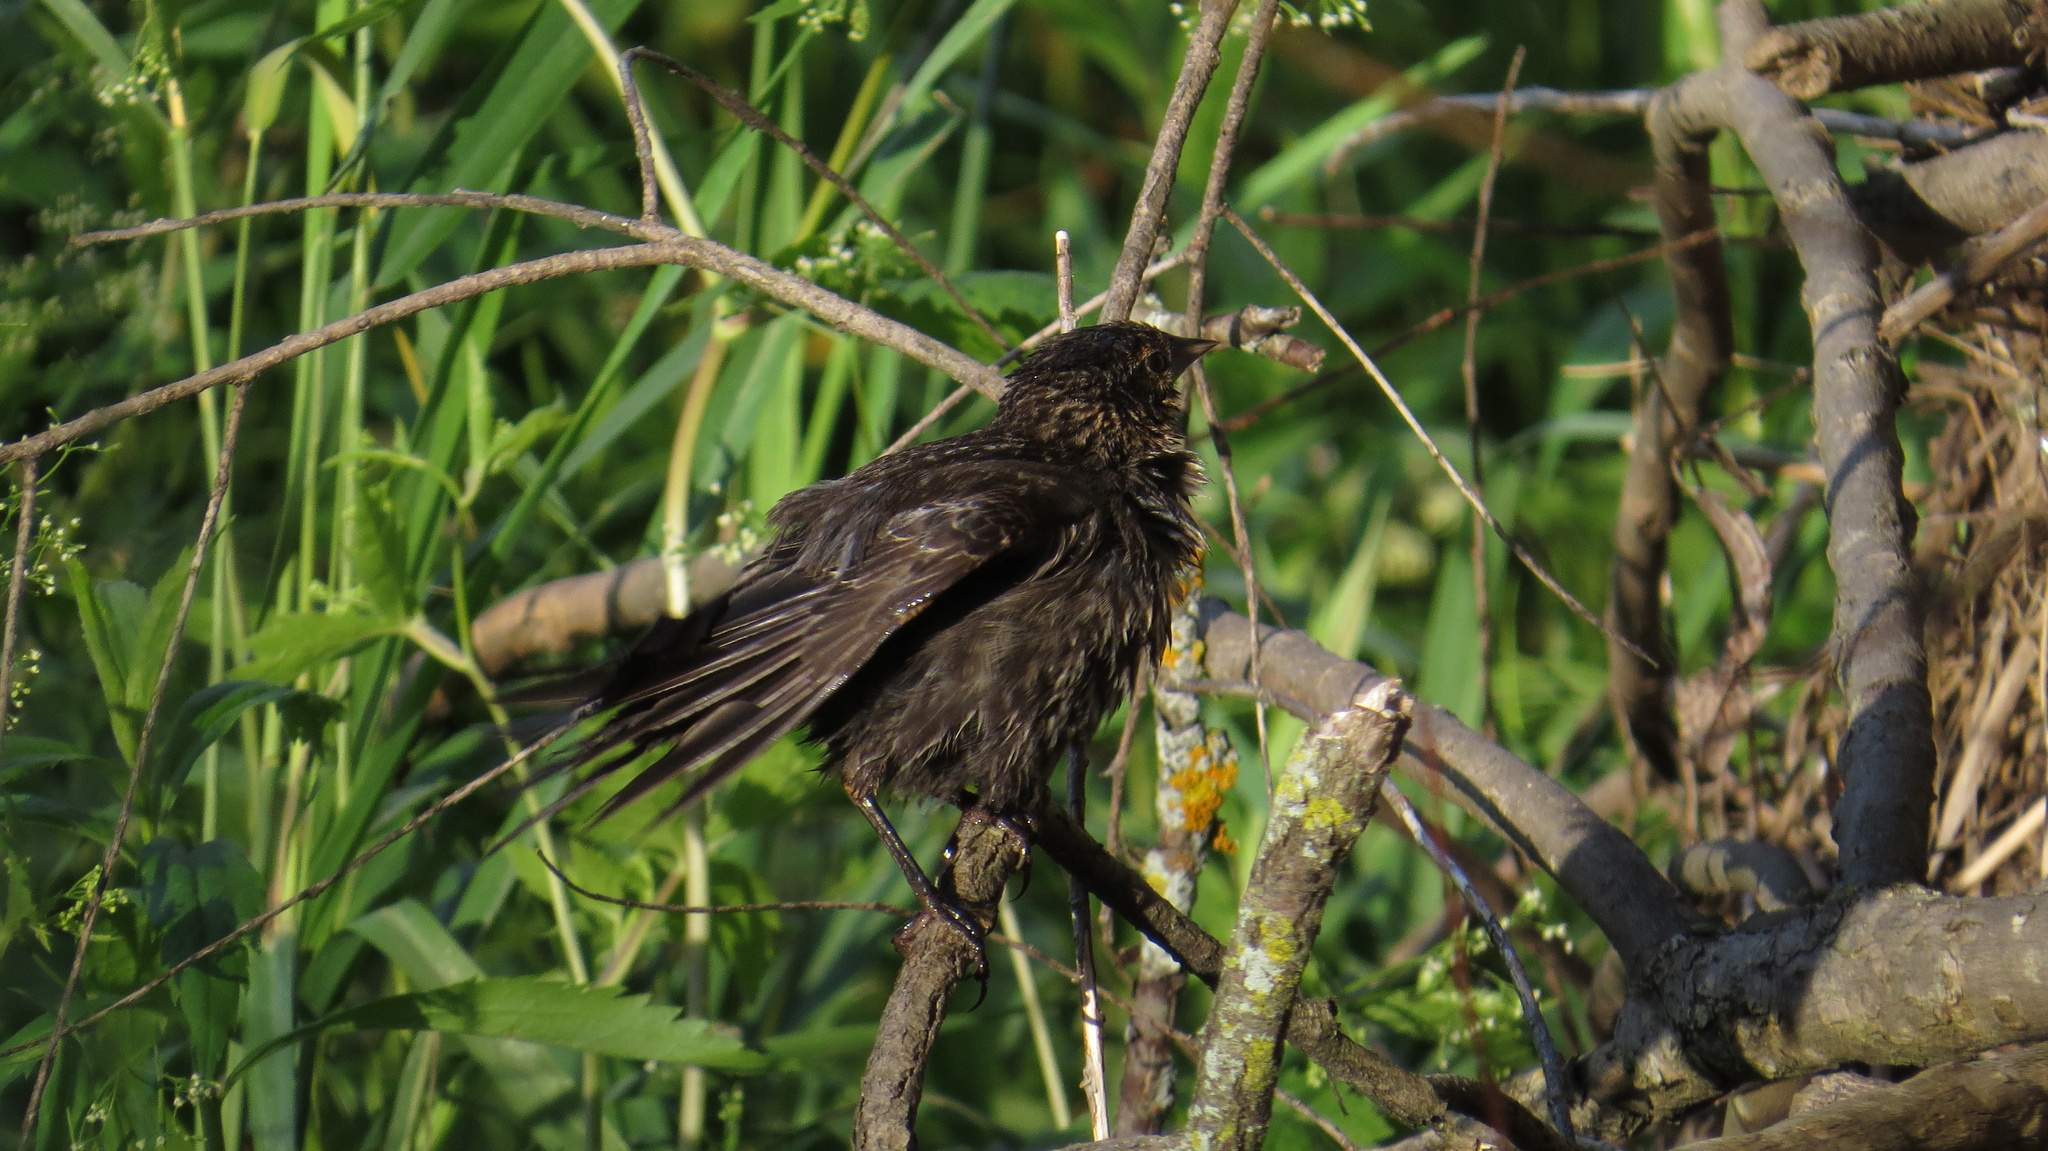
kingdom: Animalia
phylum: Chordata
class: Aves
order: Passeriformes
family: Icteridae
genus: Agelaius
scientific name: Agelaius phoeniceus
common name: Red-winged blackbird
